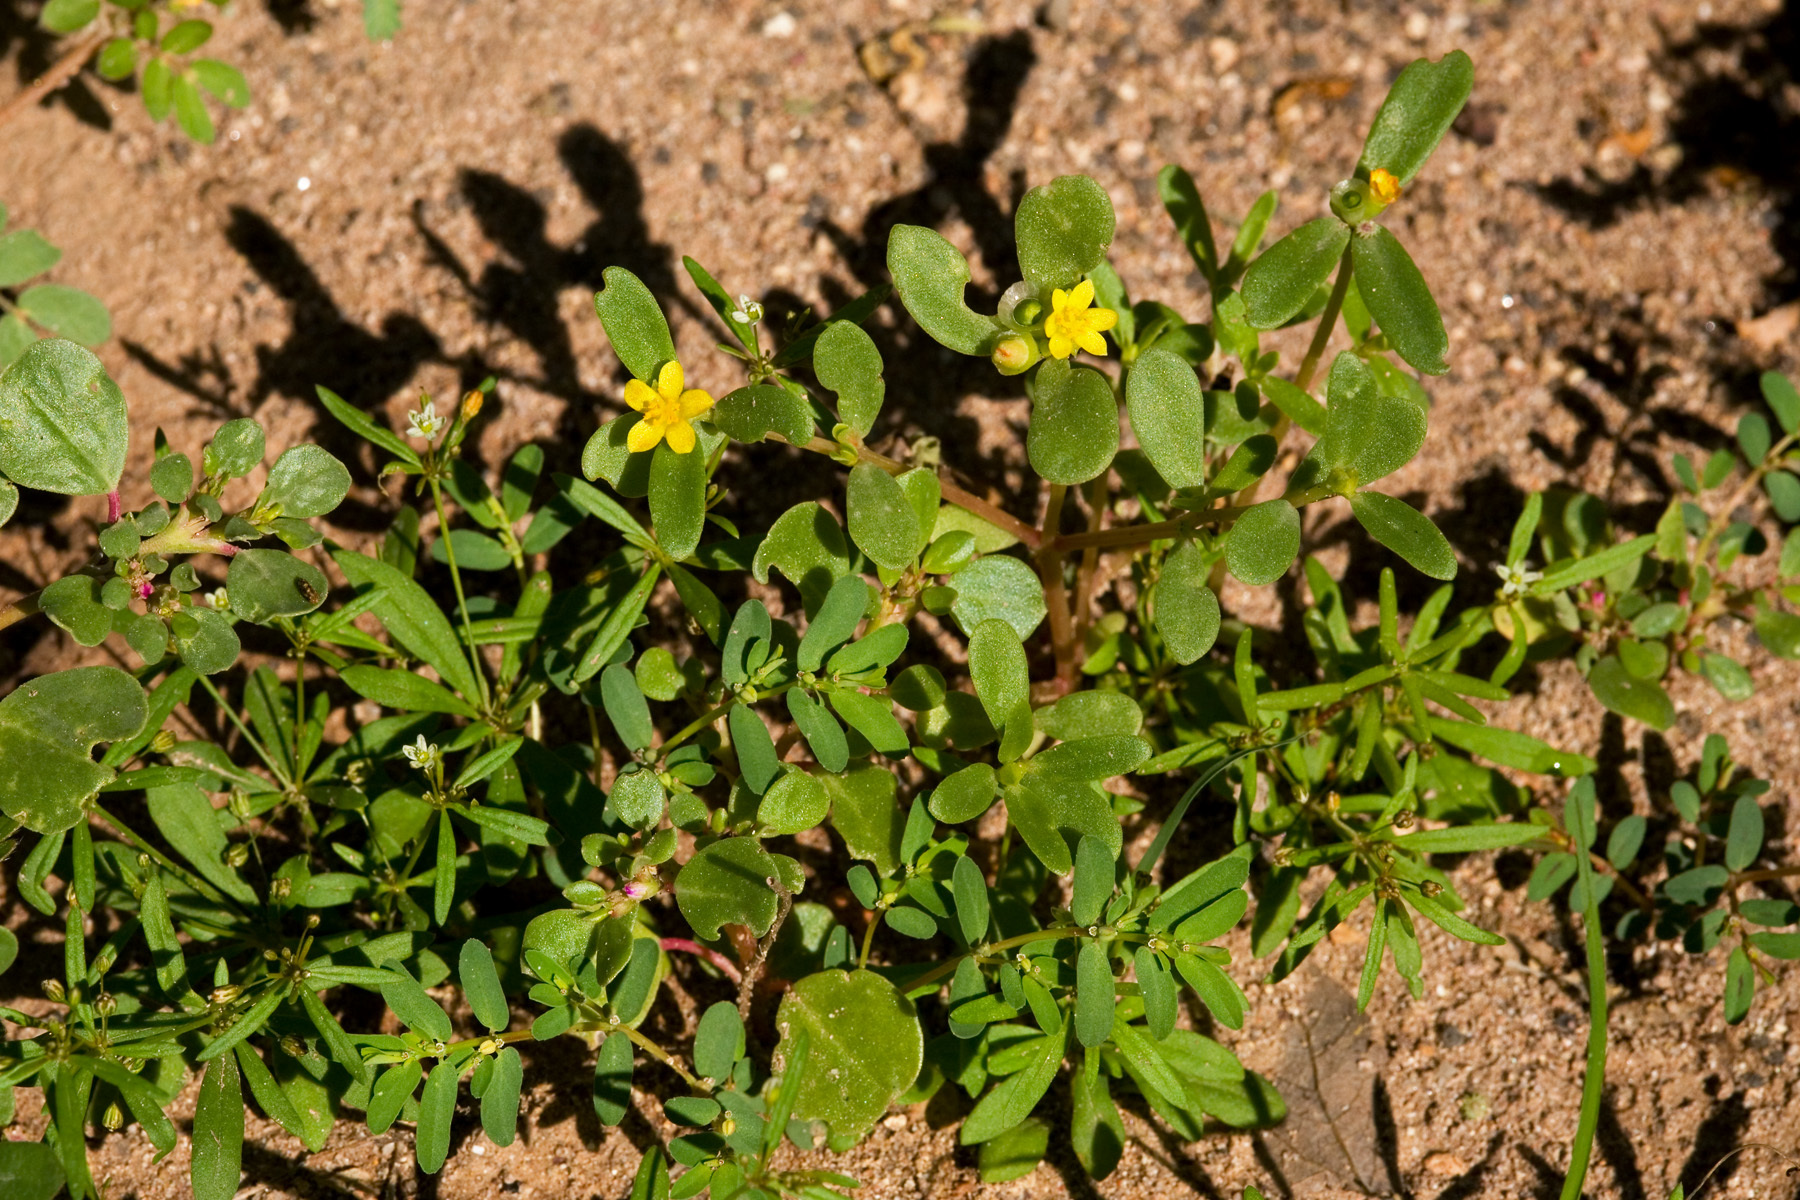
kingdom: Plantae
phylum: Tracheophyta
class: Magnoliopsida
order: Caryophyllales
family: Portulacaceae
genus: Portulaca
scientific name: Portulaca umbraticola
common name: Wingpod purslane
